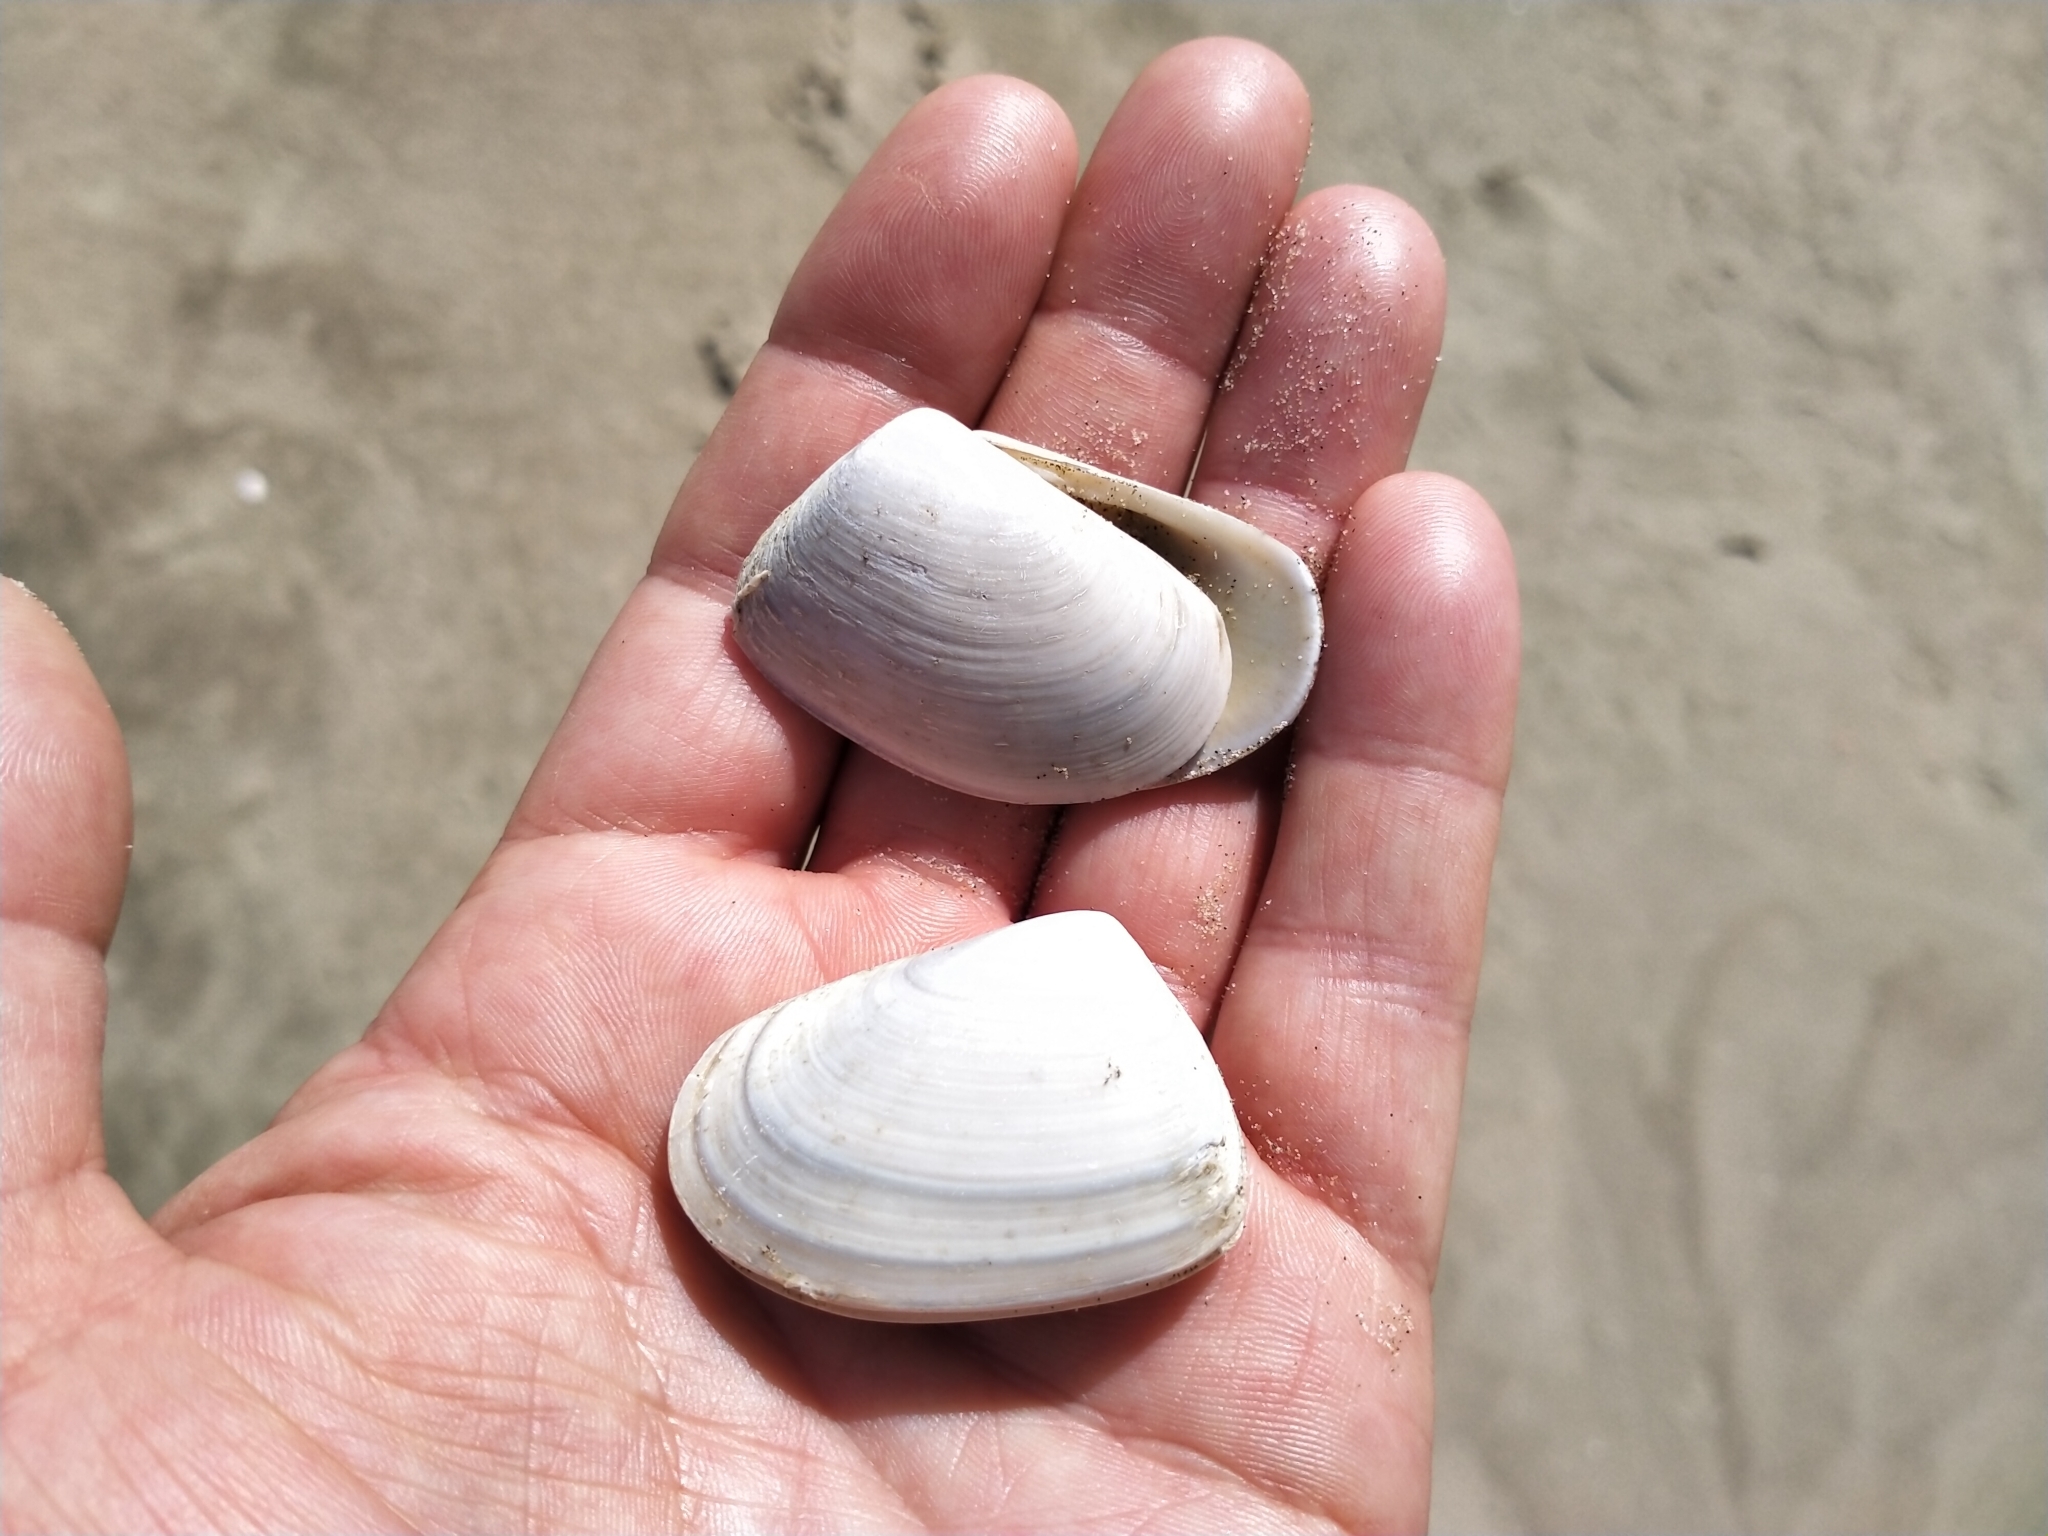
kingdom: Animalia
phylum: Mollusca
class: Bivalvia
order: Venerida
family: Mesodesmatidae
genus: Paphies
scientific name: Paphies subtriangulata
